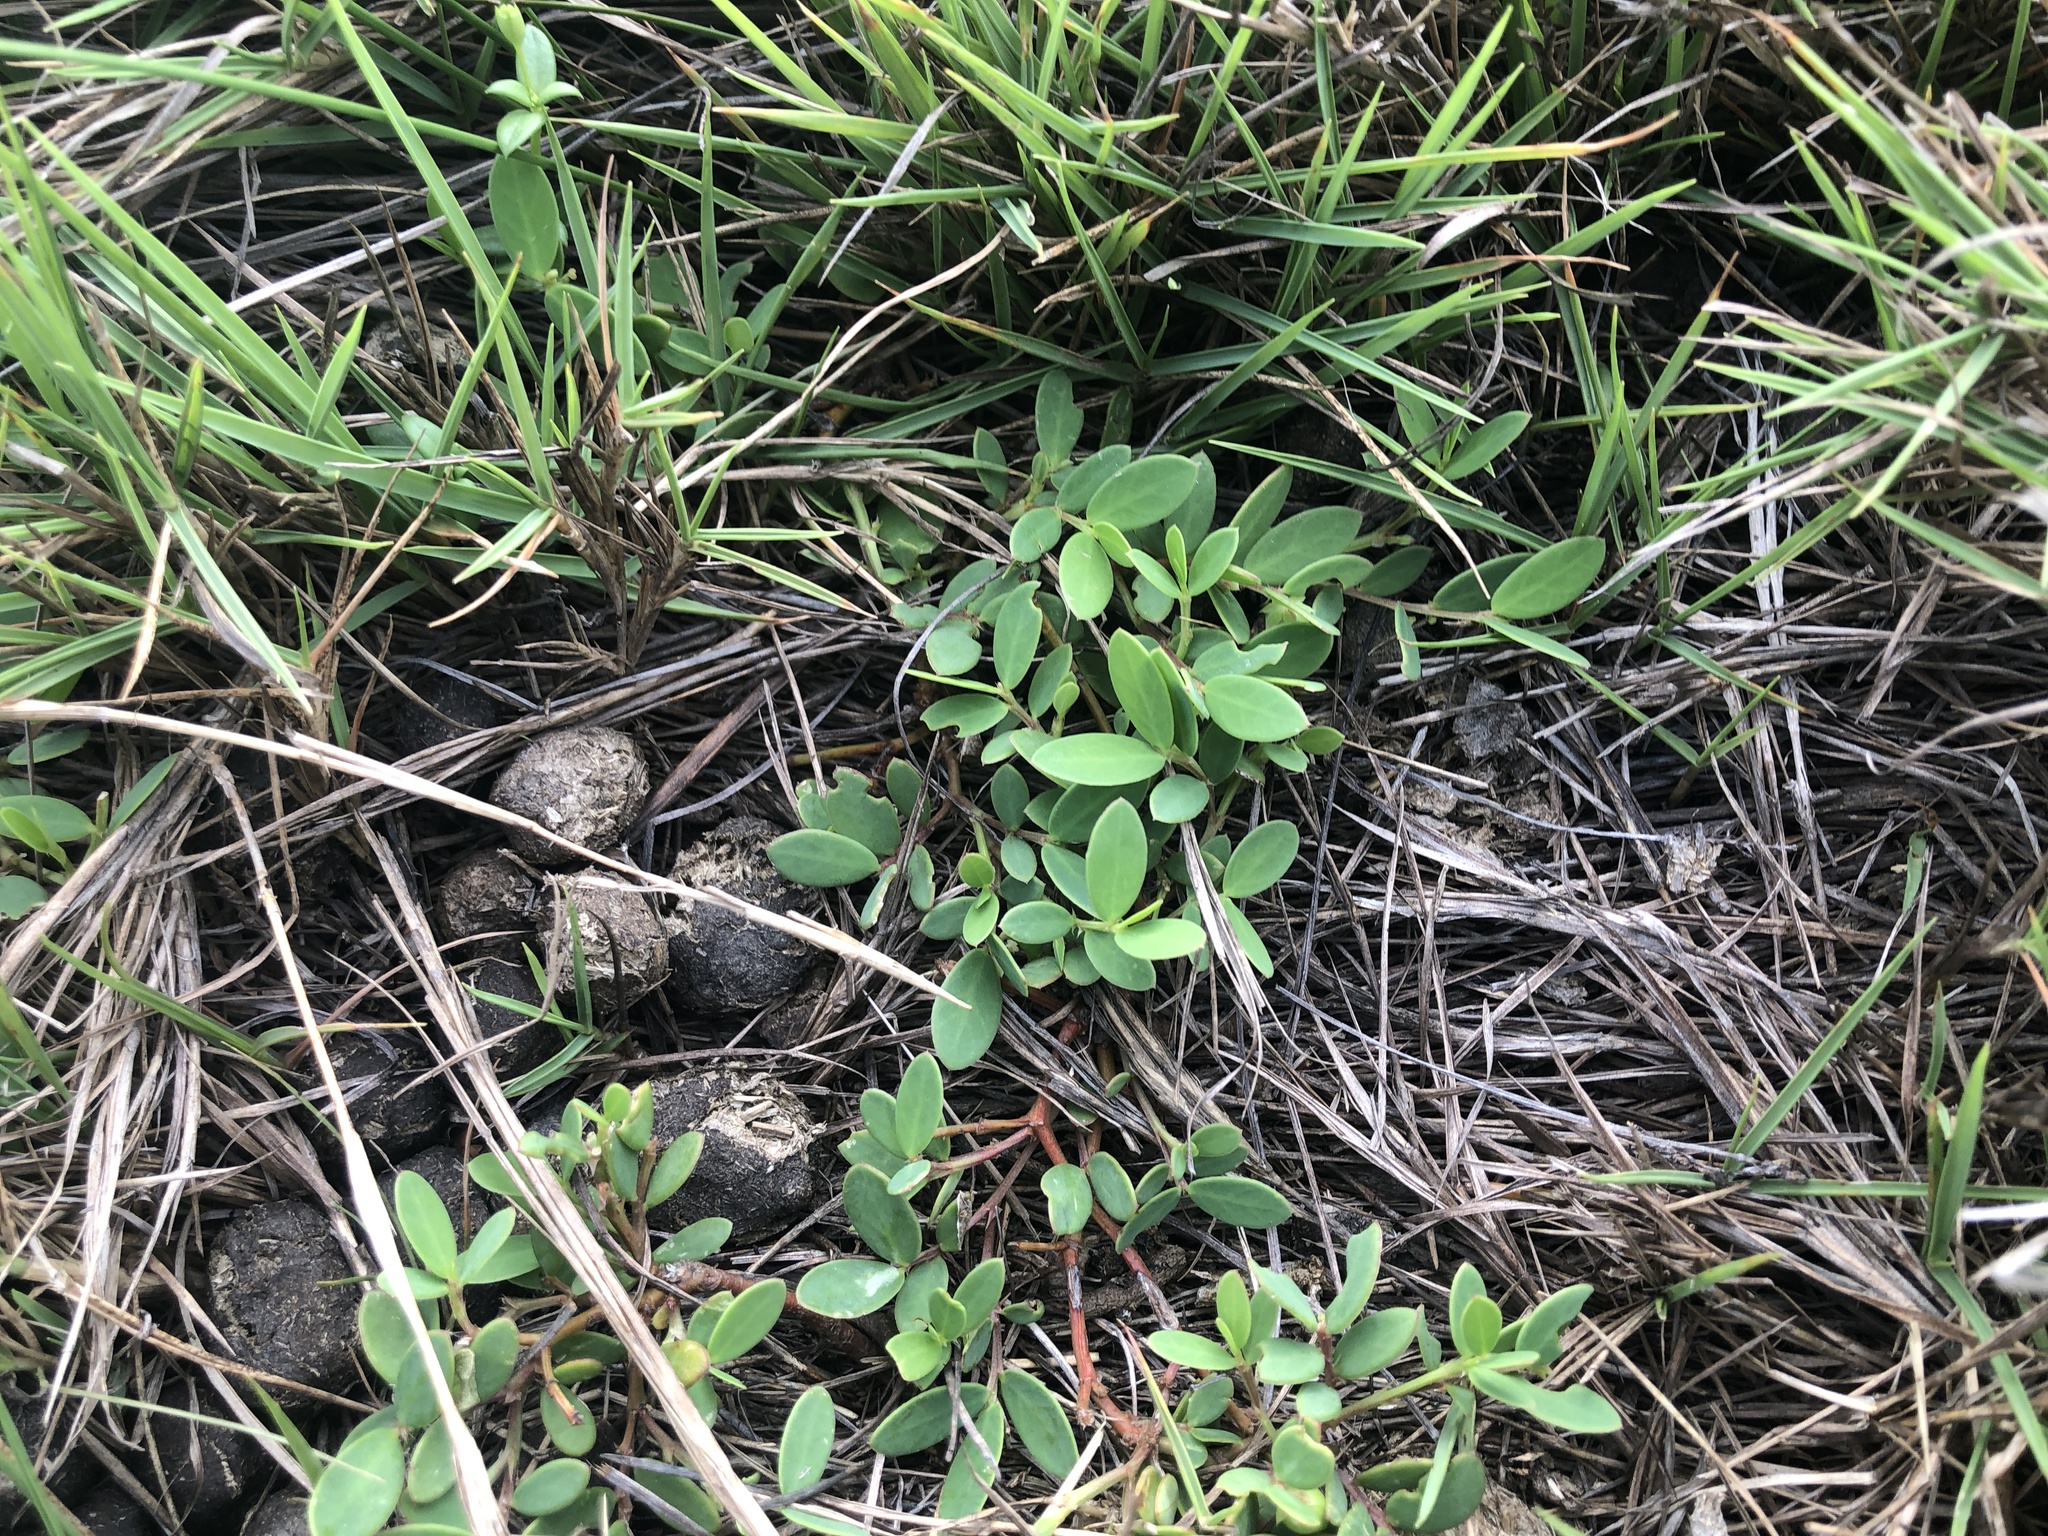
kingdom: Plantae
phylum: Tracheophyta
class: Magnoliopsida
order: Malpighiales
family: Phyllanthaceae
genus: Synostemon
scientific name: Synostemon bacciformis
